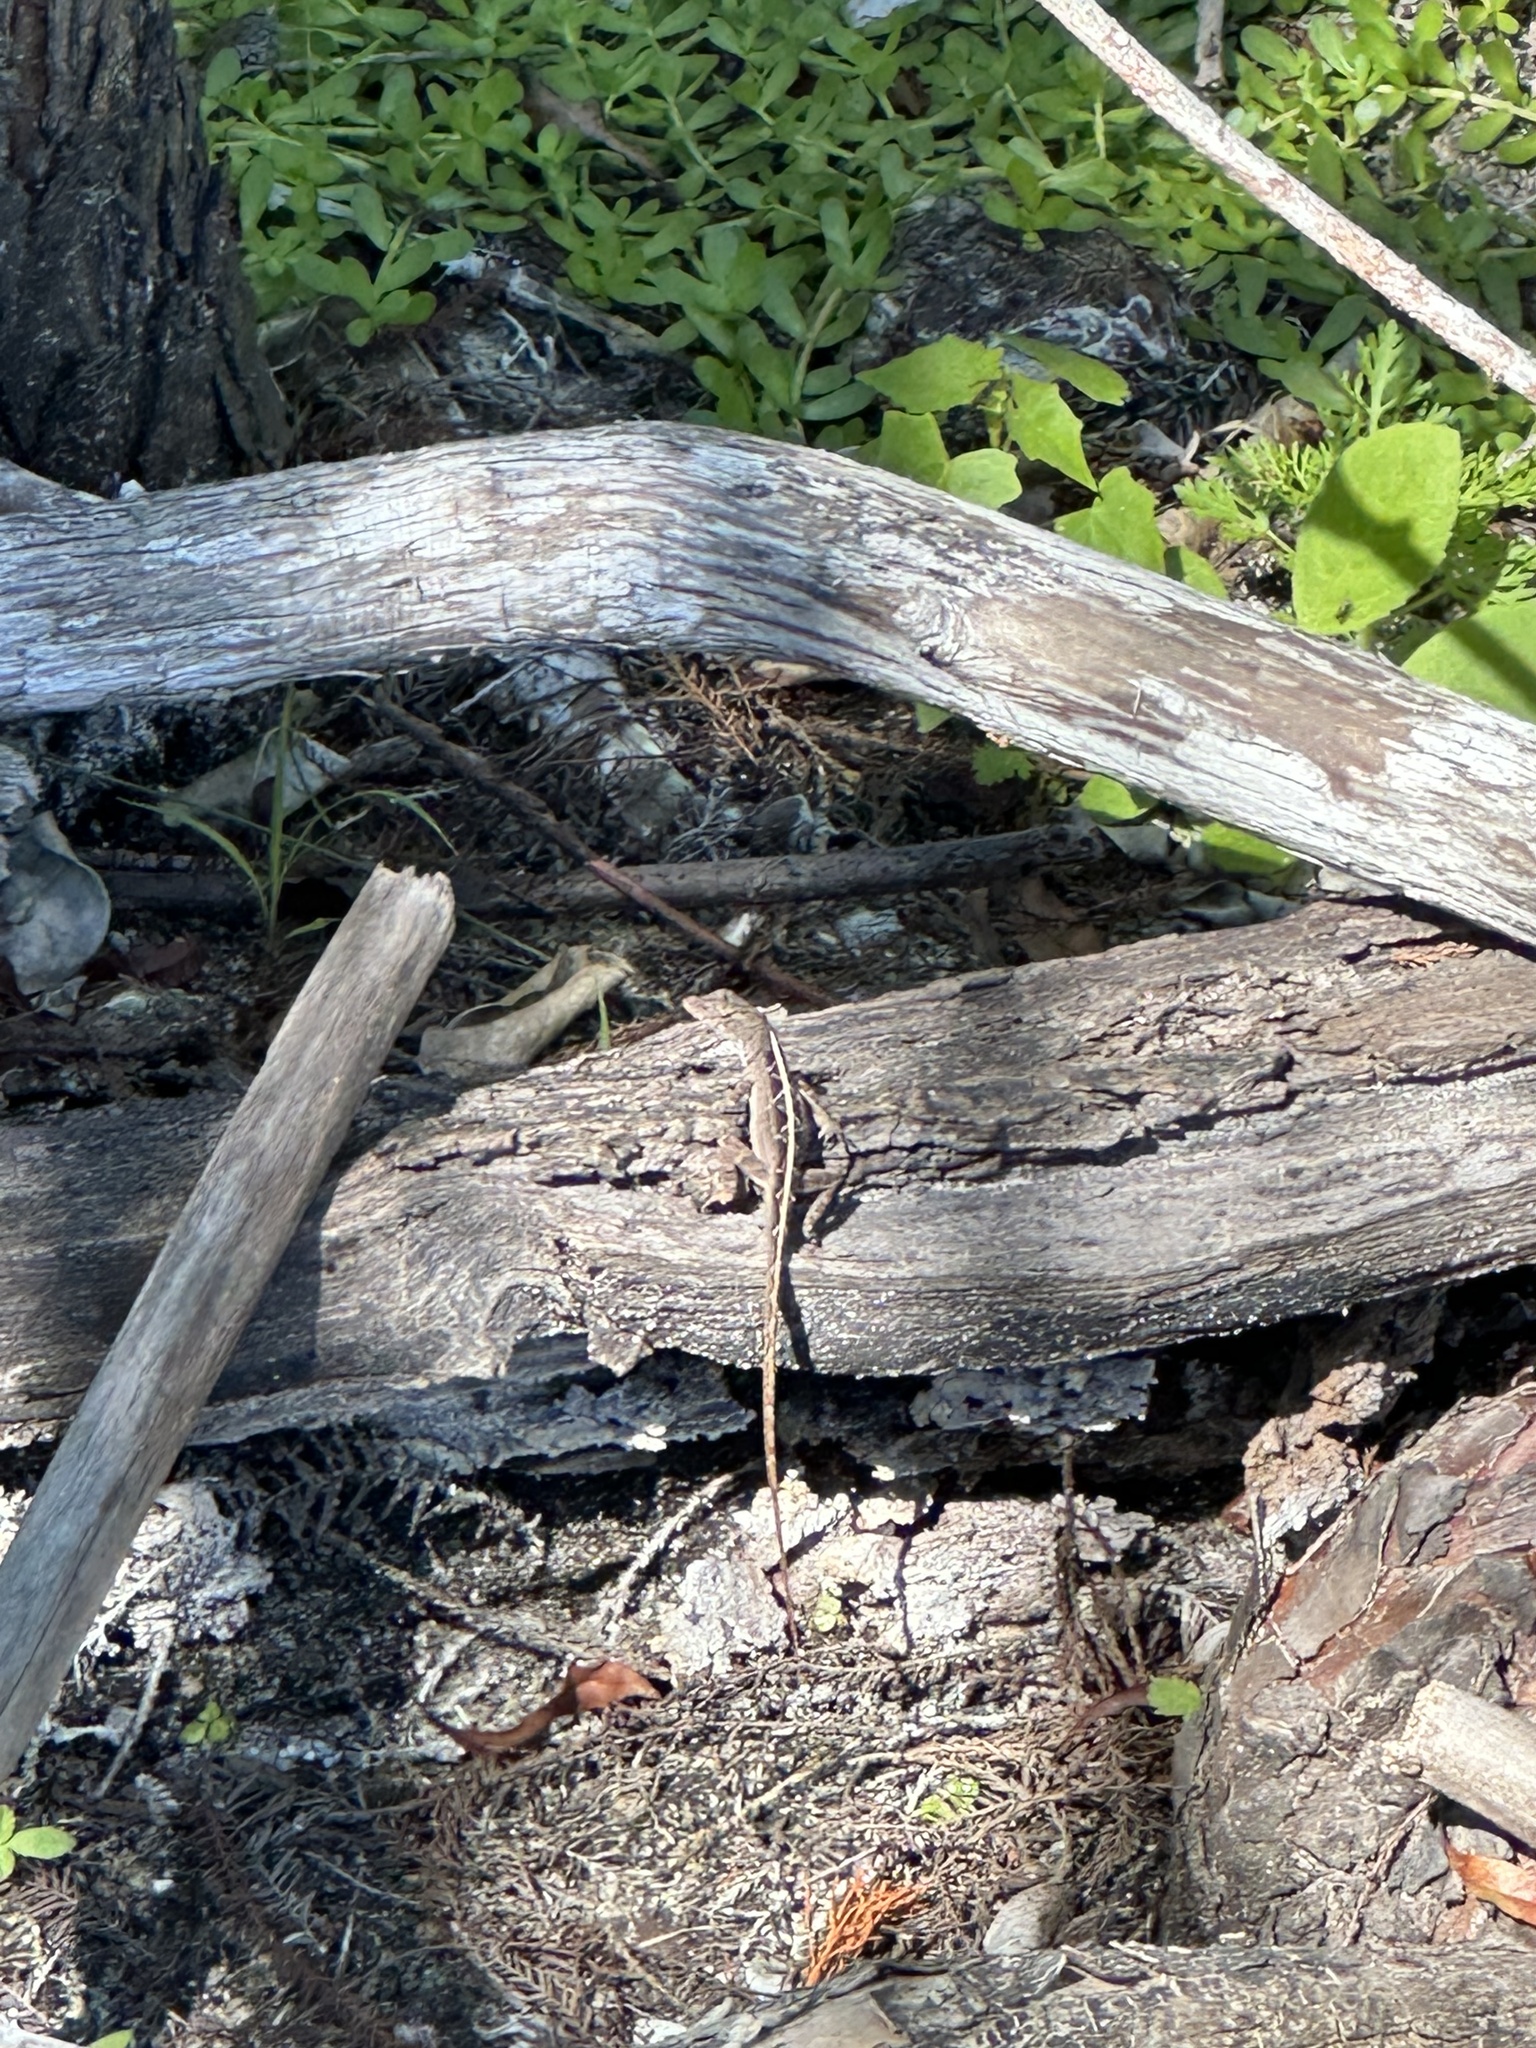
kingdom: Animalia
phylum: Chordata
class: Squamata
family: Dactyloidae
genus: Anolis
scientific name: Anolis sagrei
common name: Brown anole
